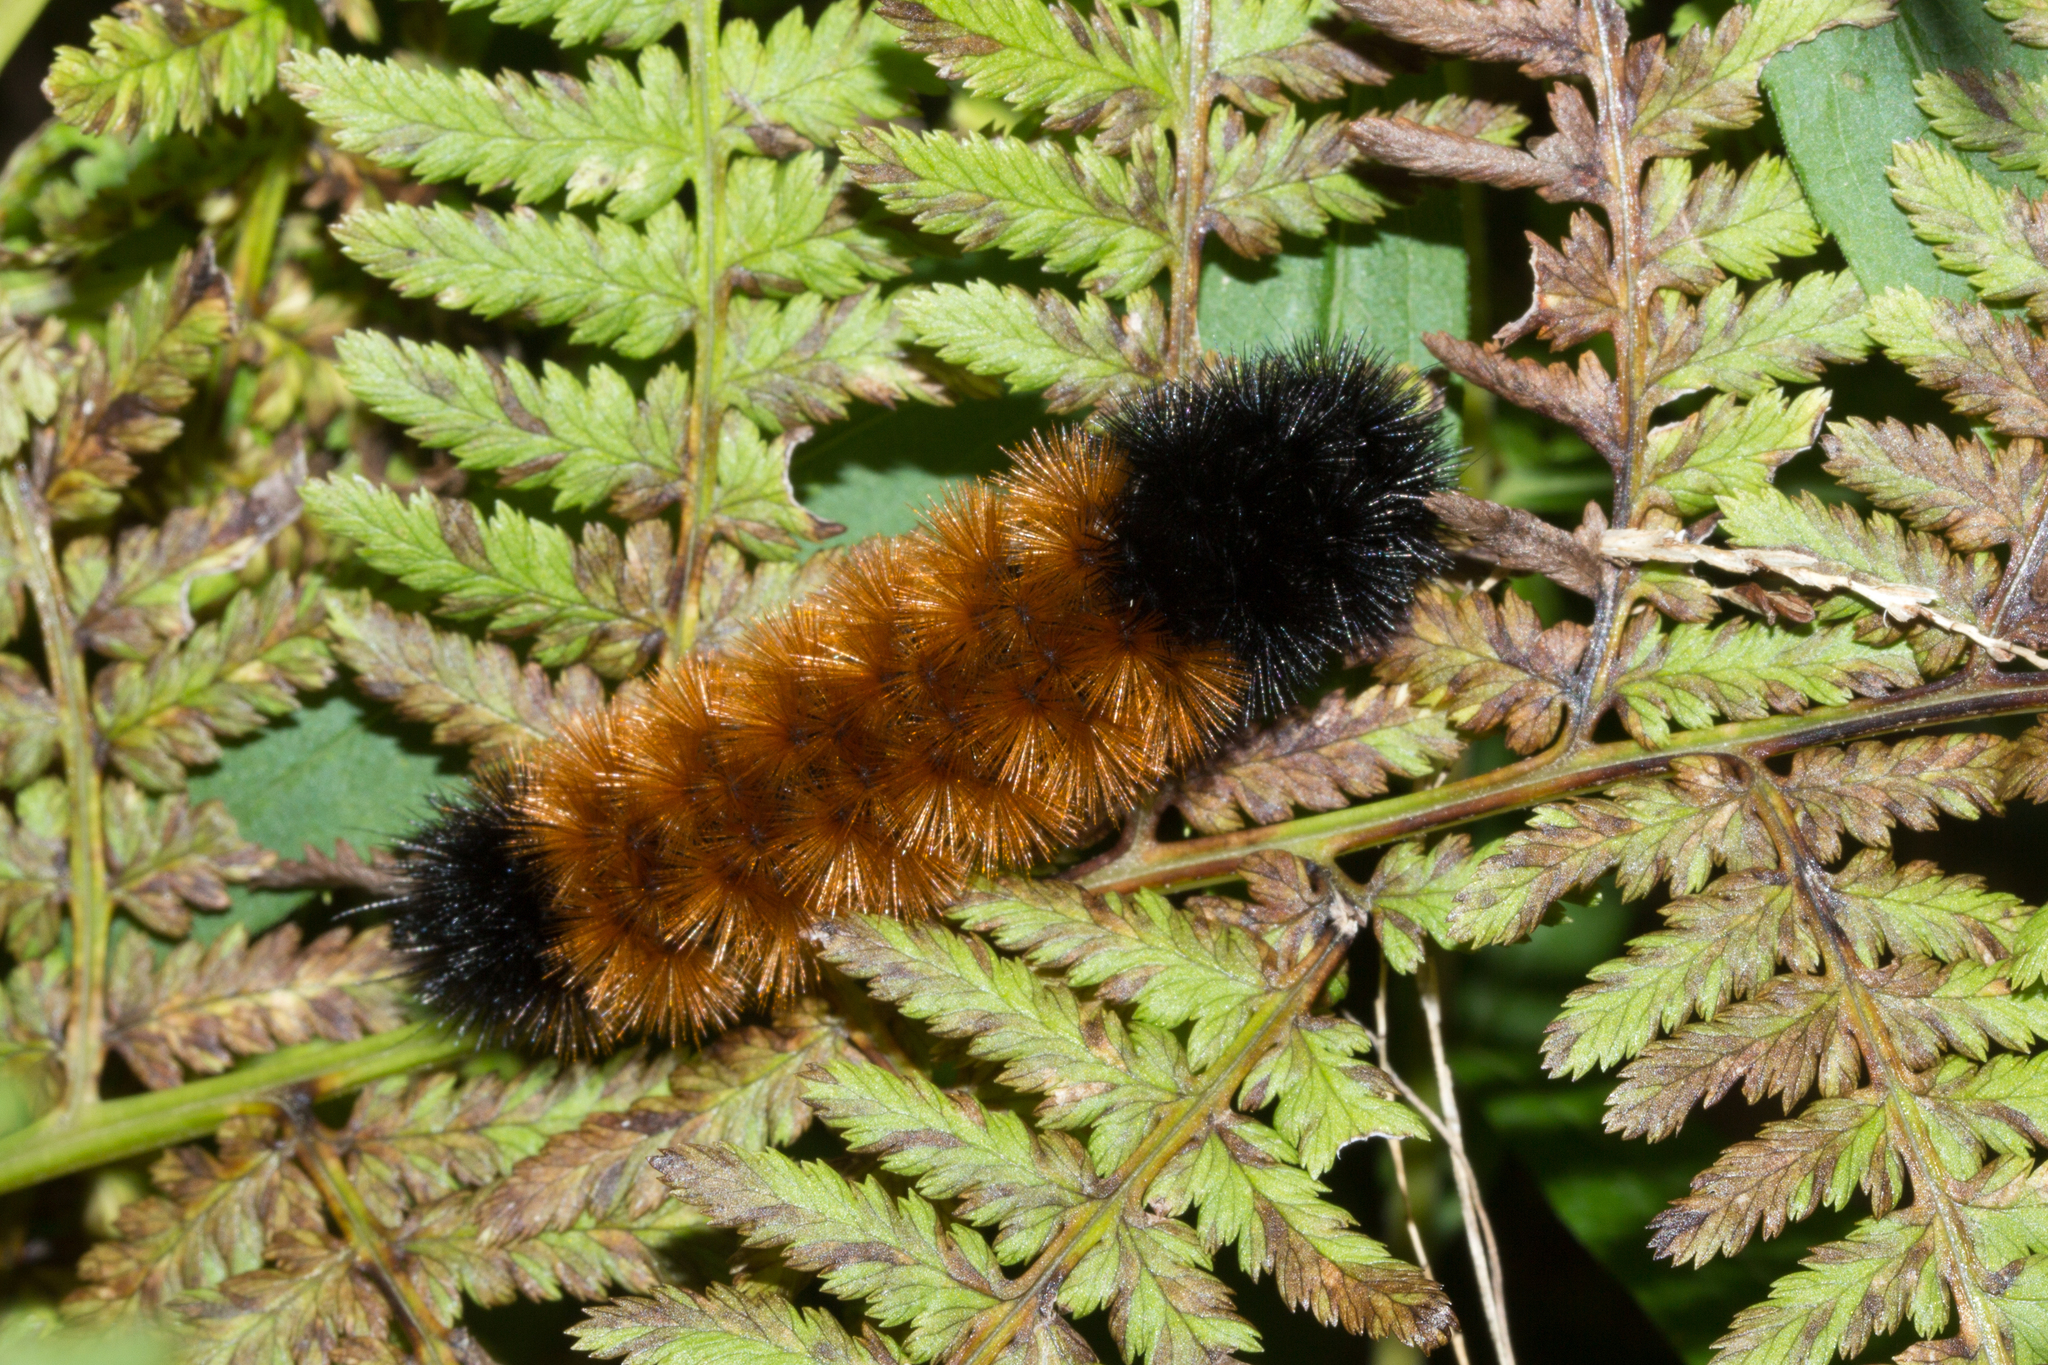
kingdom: Animalia
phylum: Arthropoda
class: Insecta
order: Lepidoptera
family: Erebidae
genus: Pyrrharctia
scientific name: Pyrrharctia isabella
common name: Isabella tiger moth
